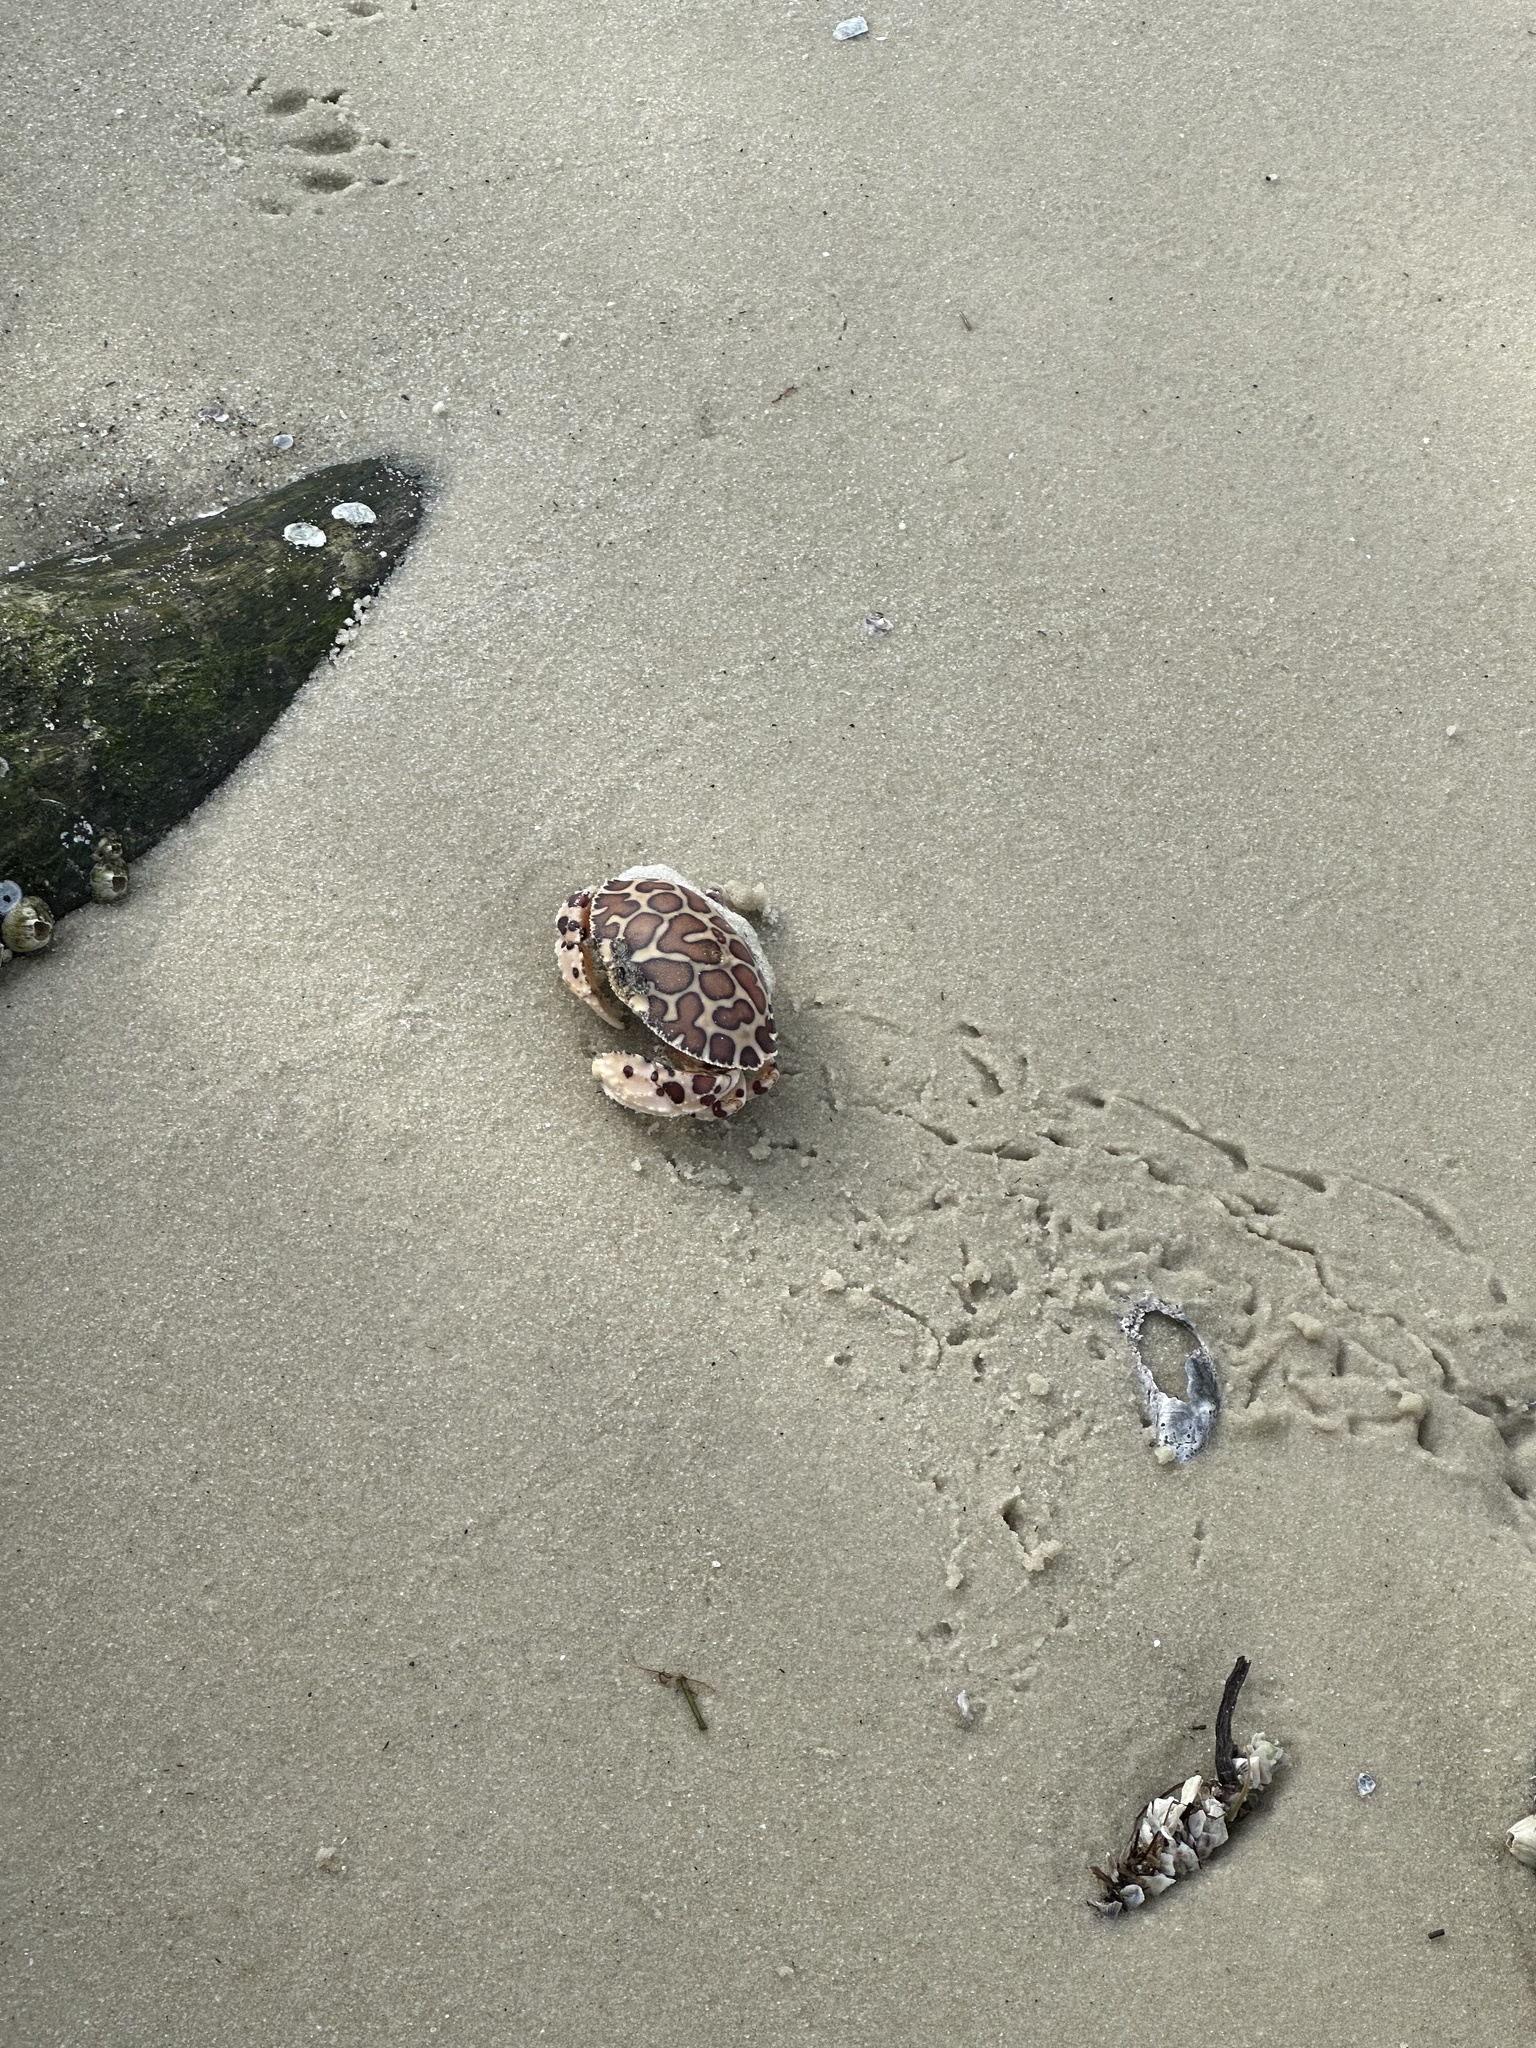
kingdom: Animalia
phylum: Arthropoda
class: Malacostraca
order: Decapoda
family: Aethridae
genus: Hepatus
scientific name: Hepatus epheliticus
